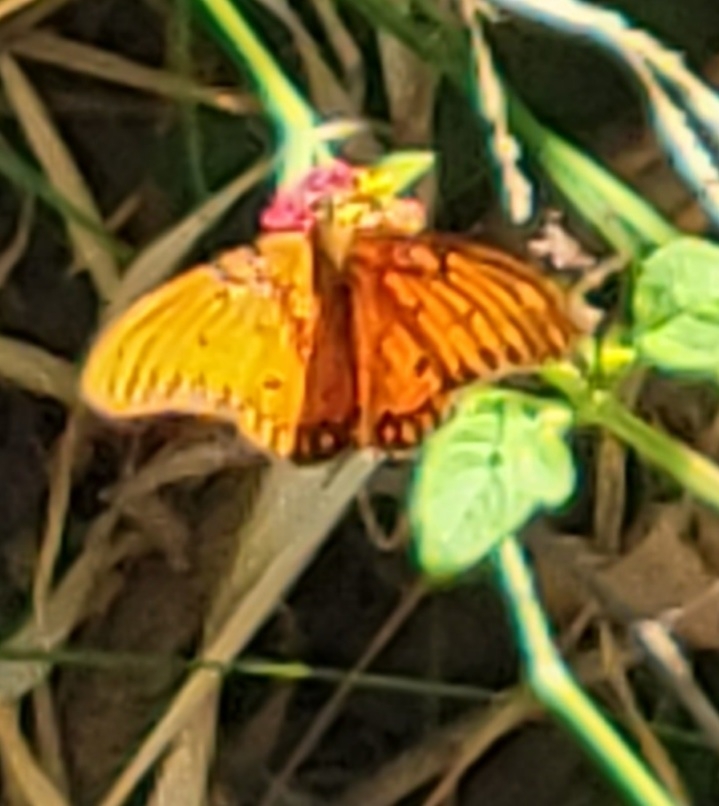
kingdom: Animalia
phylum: Arthropoda
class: Insecta
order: Lepidoptera
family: Nymphalidae
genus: Dione
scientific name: Dione vanillae
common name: Gulf fritillary
